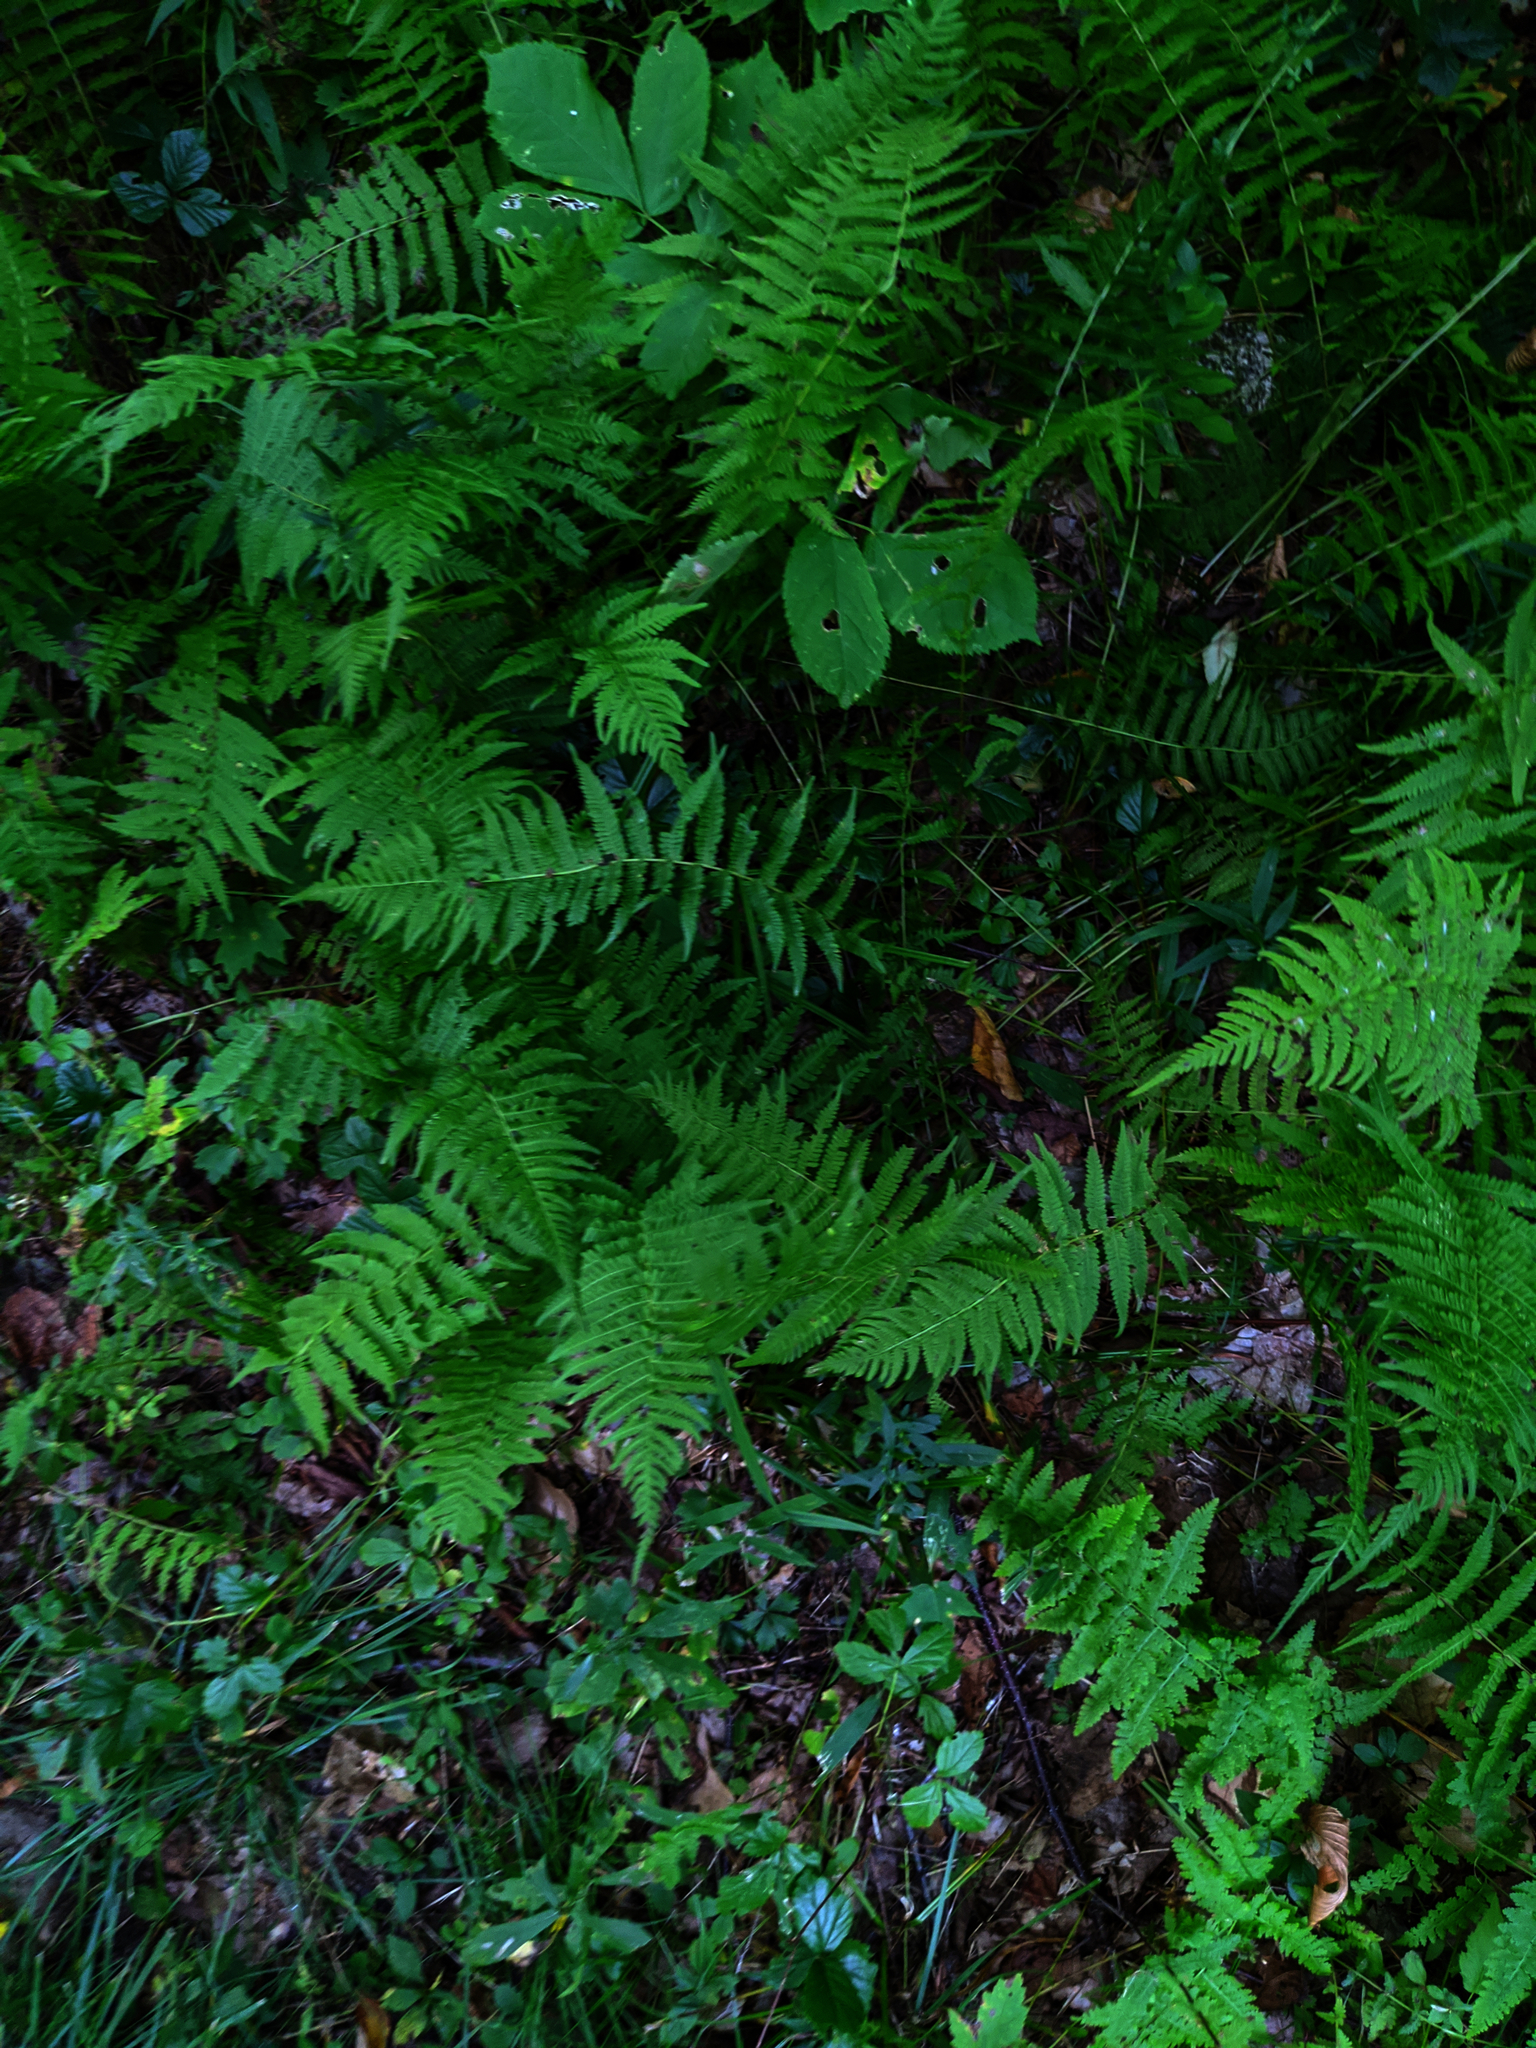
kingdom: Plantae
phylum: Tracheophyta
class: Polypodiopsida
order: Polypodiales
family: Thelypteridaceae
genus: Amauropelta
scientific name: Amauropelta noveboracensis
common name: New york fern
